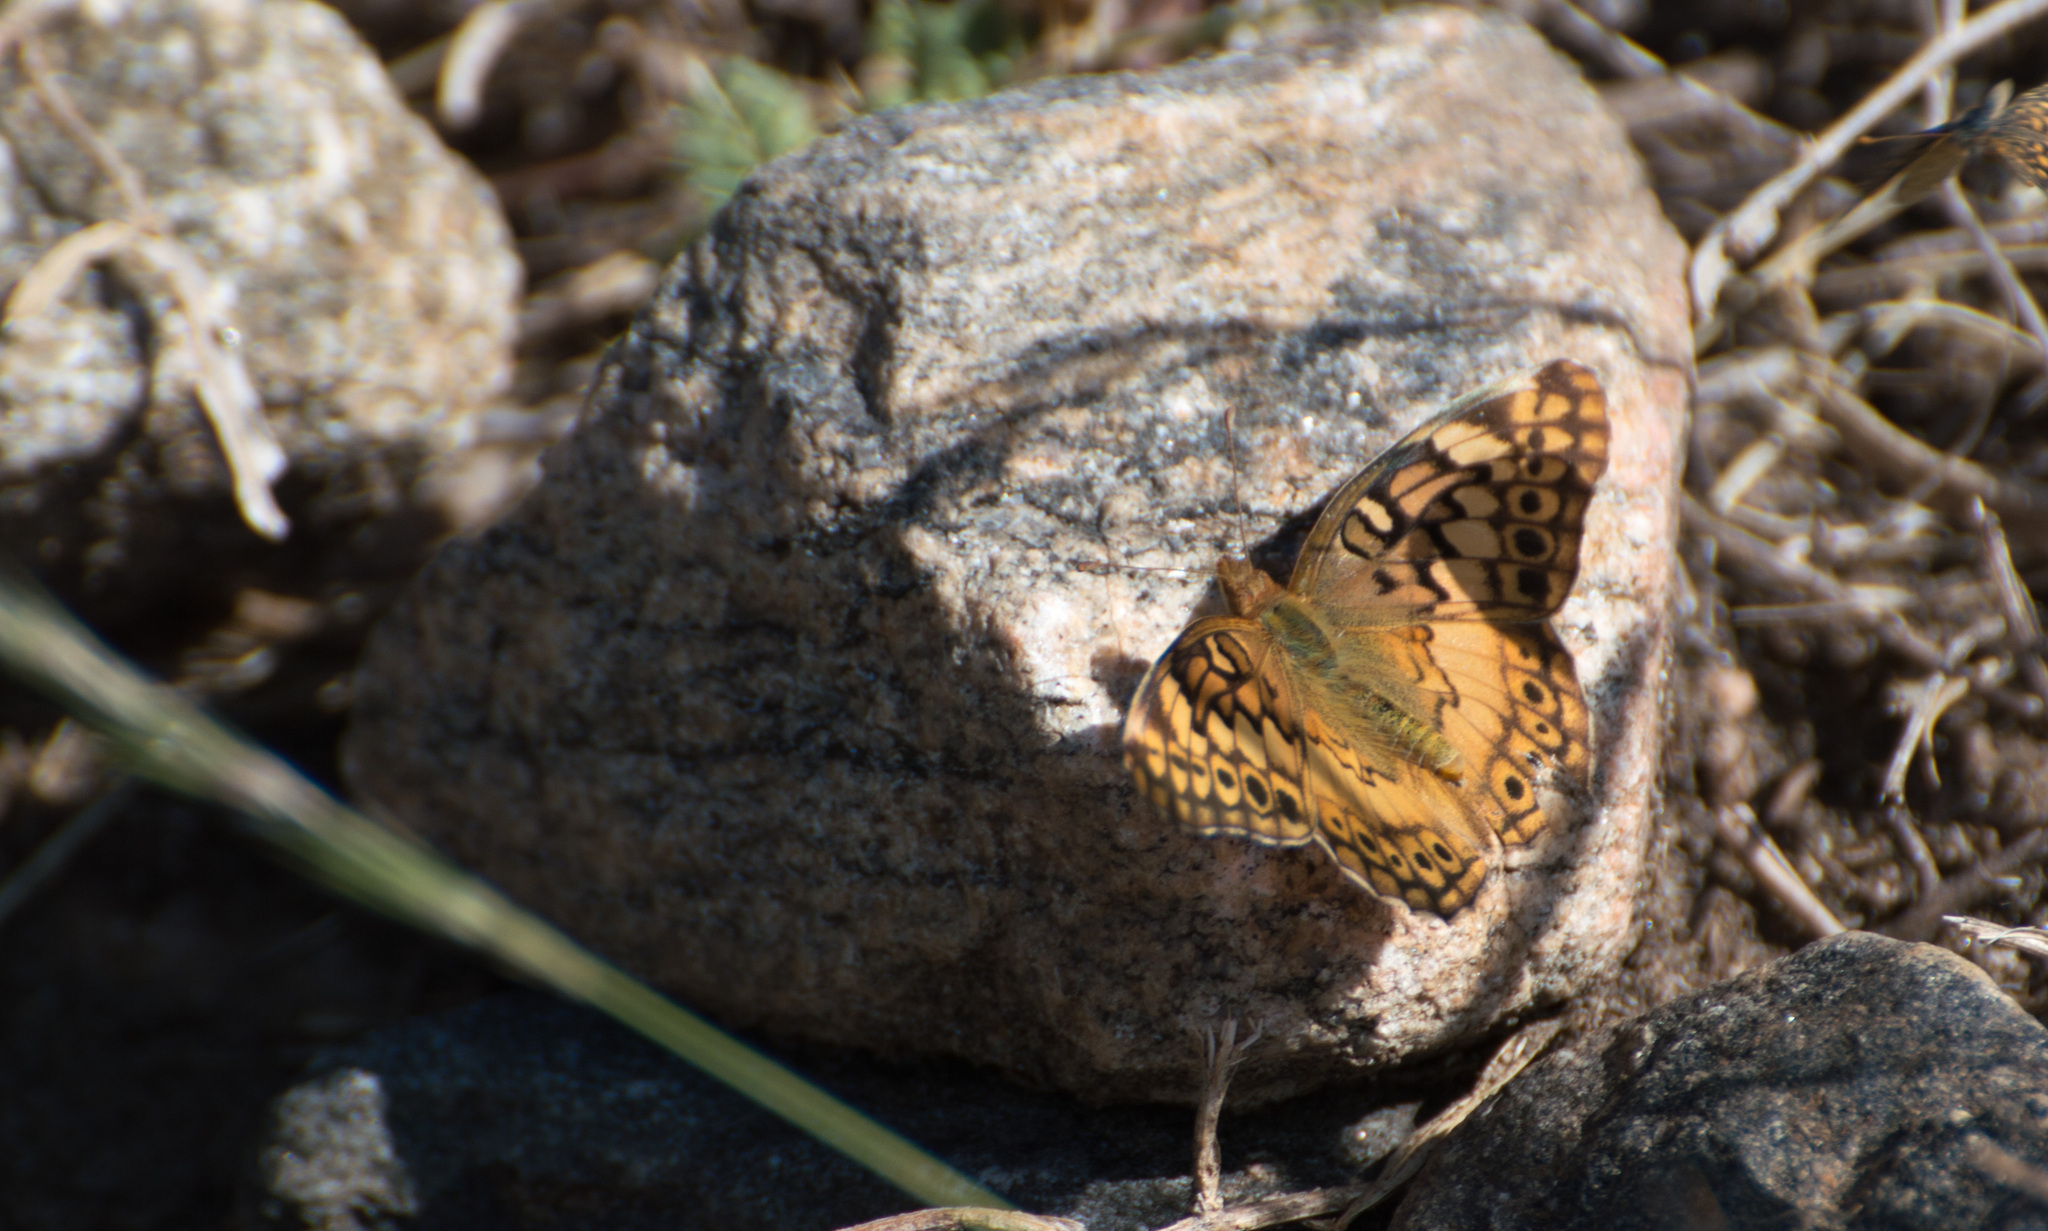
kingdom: Animalia
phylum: Arthropoda
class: Insecta
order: Lepidoptera
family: Nymphalidae
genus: Euptoieta
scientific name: Euptoieta hortensia
